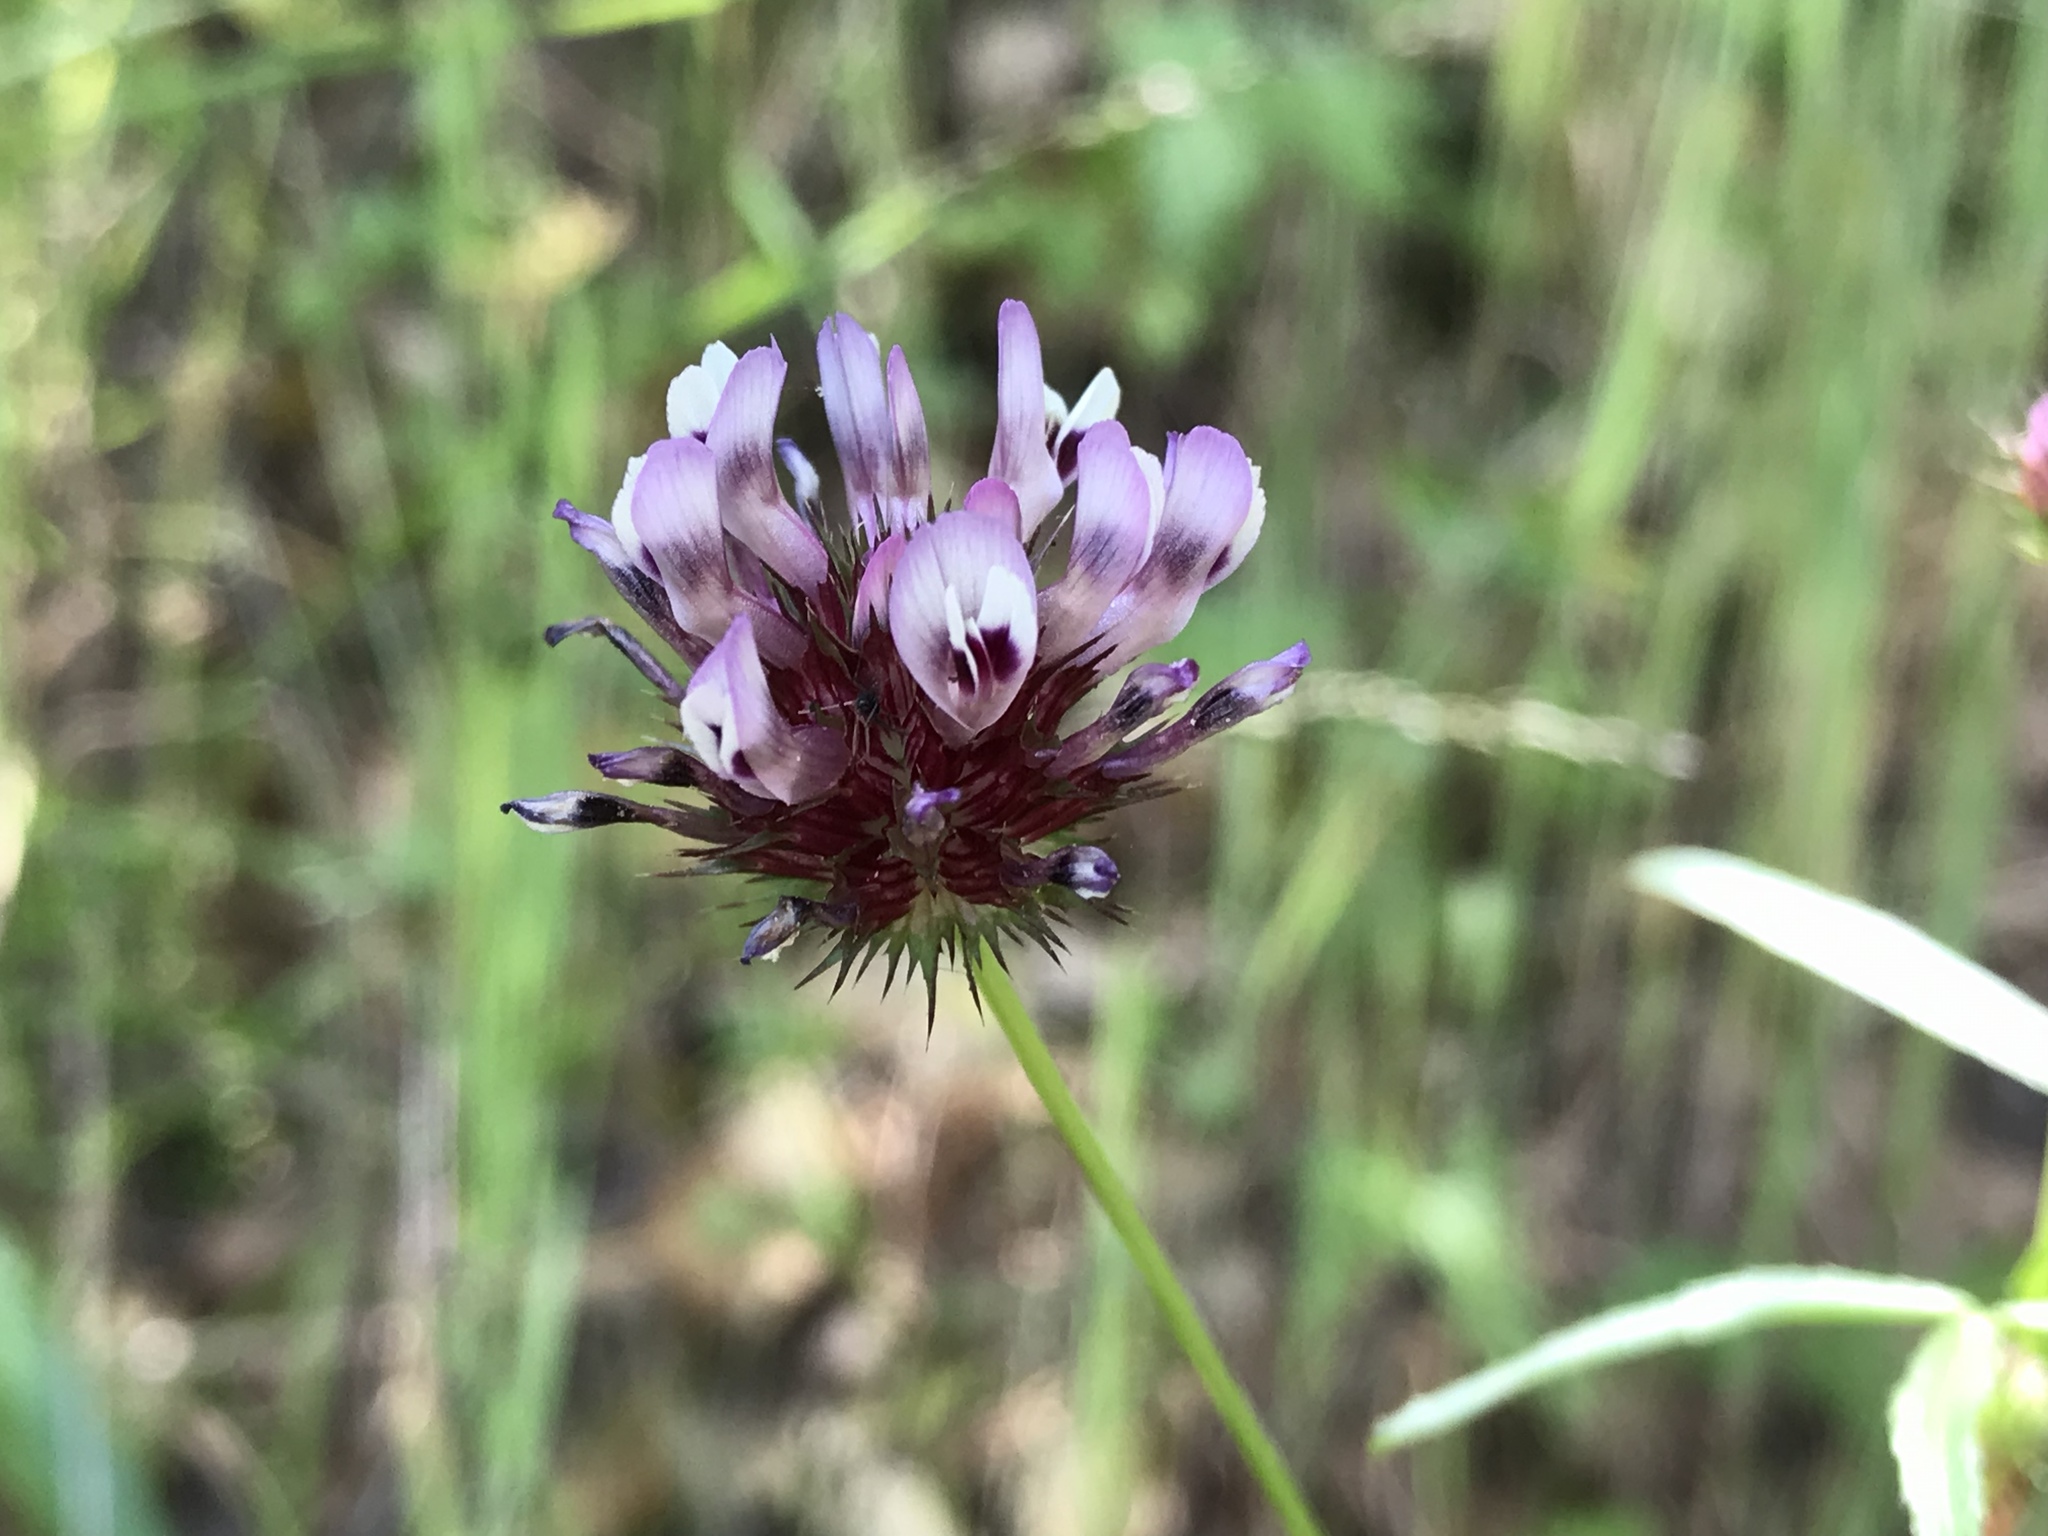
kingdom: Plantae
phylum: Tracheophyta
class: Magnoliopsida
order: Fabales
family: Fabaceae
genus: Trifolium
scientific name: Trifolium willdenovii
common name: Tomcat clover
